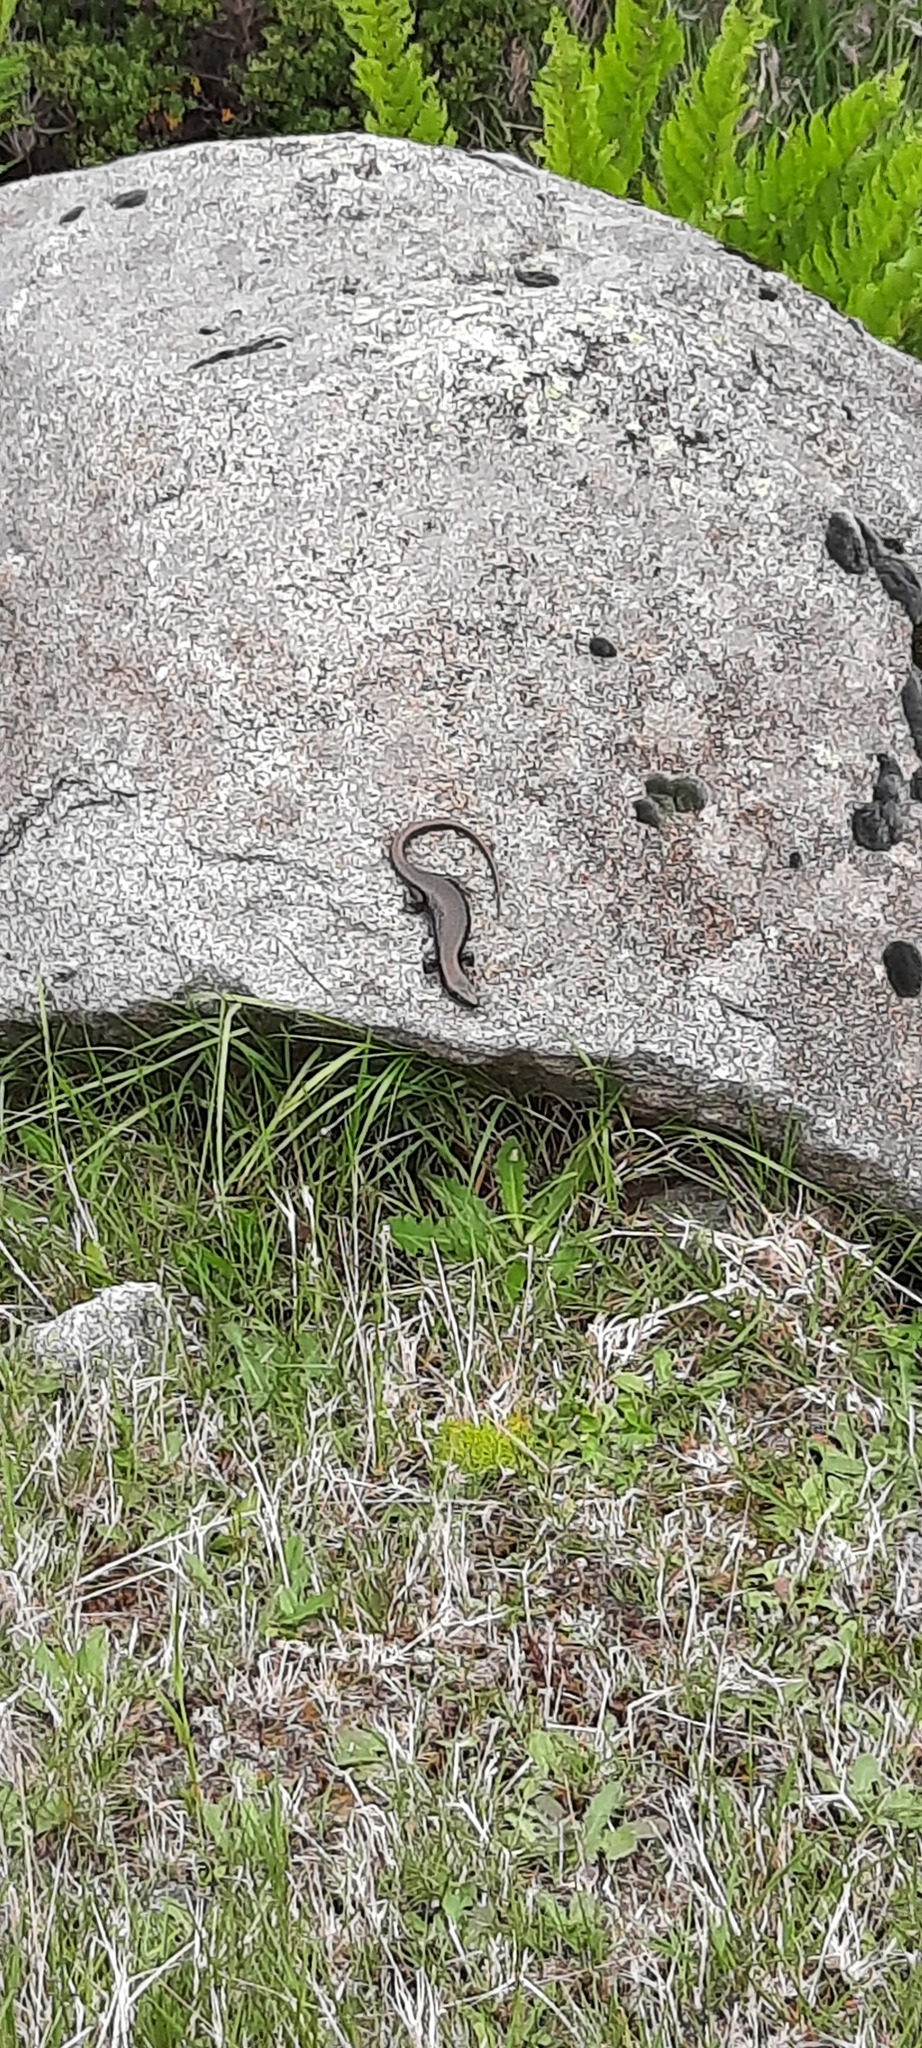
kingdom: Animalia
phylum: Chordata
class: Squamata
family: Scincidae
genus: Eulamprus
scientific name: Eulamprus tympanum
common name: Cool-temperate water-skink
